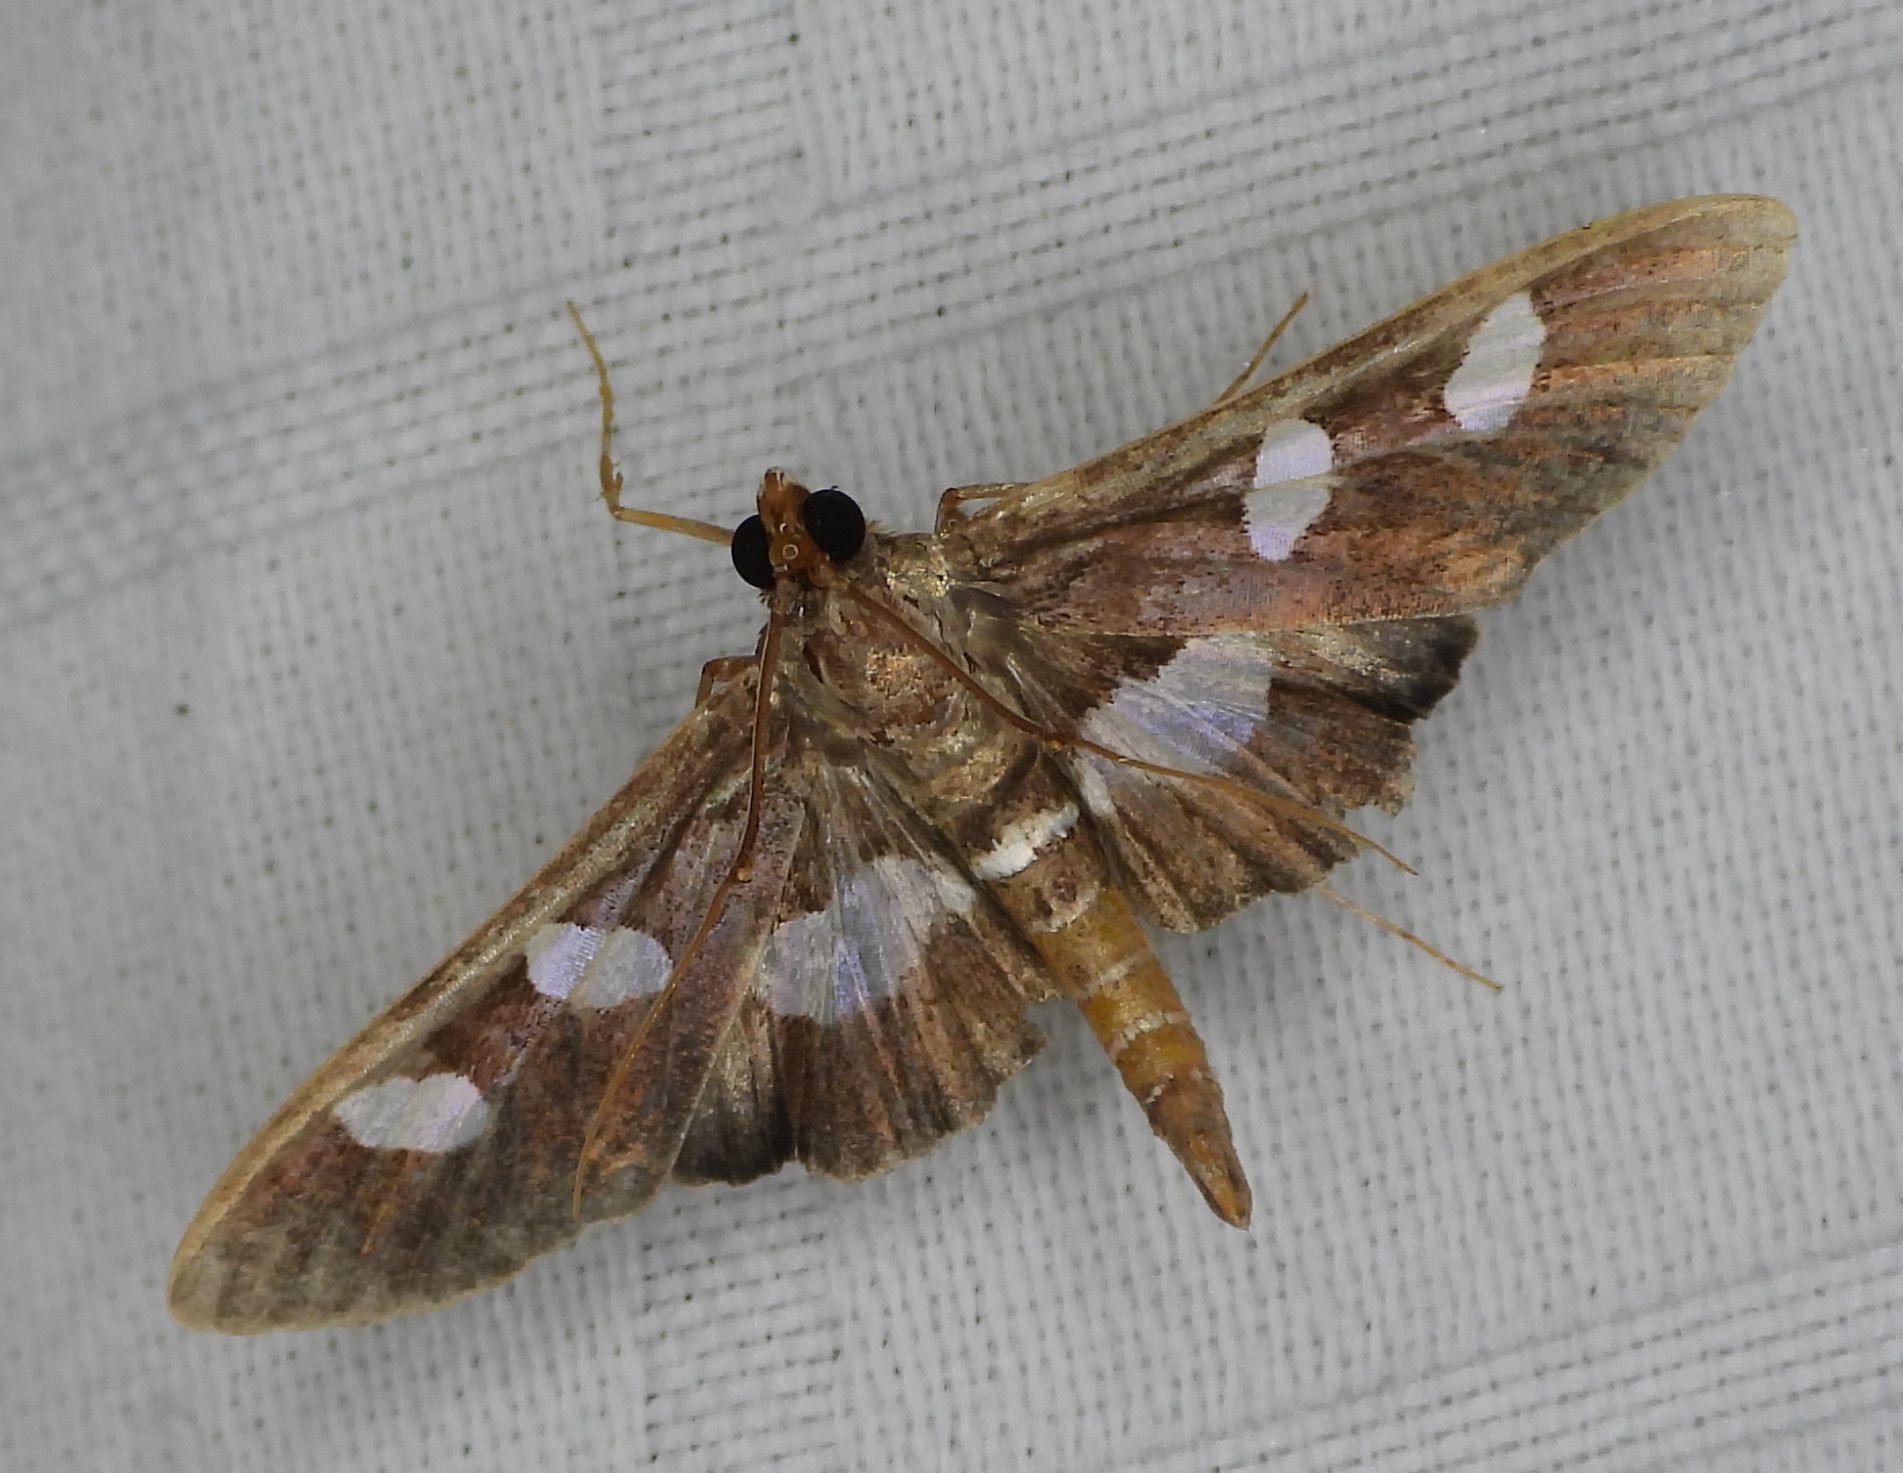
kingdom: Animalia
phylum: Arthropoda
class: Insecta
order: Lepidoptera
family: Crambidae
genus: Desmia
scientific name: Desmia
